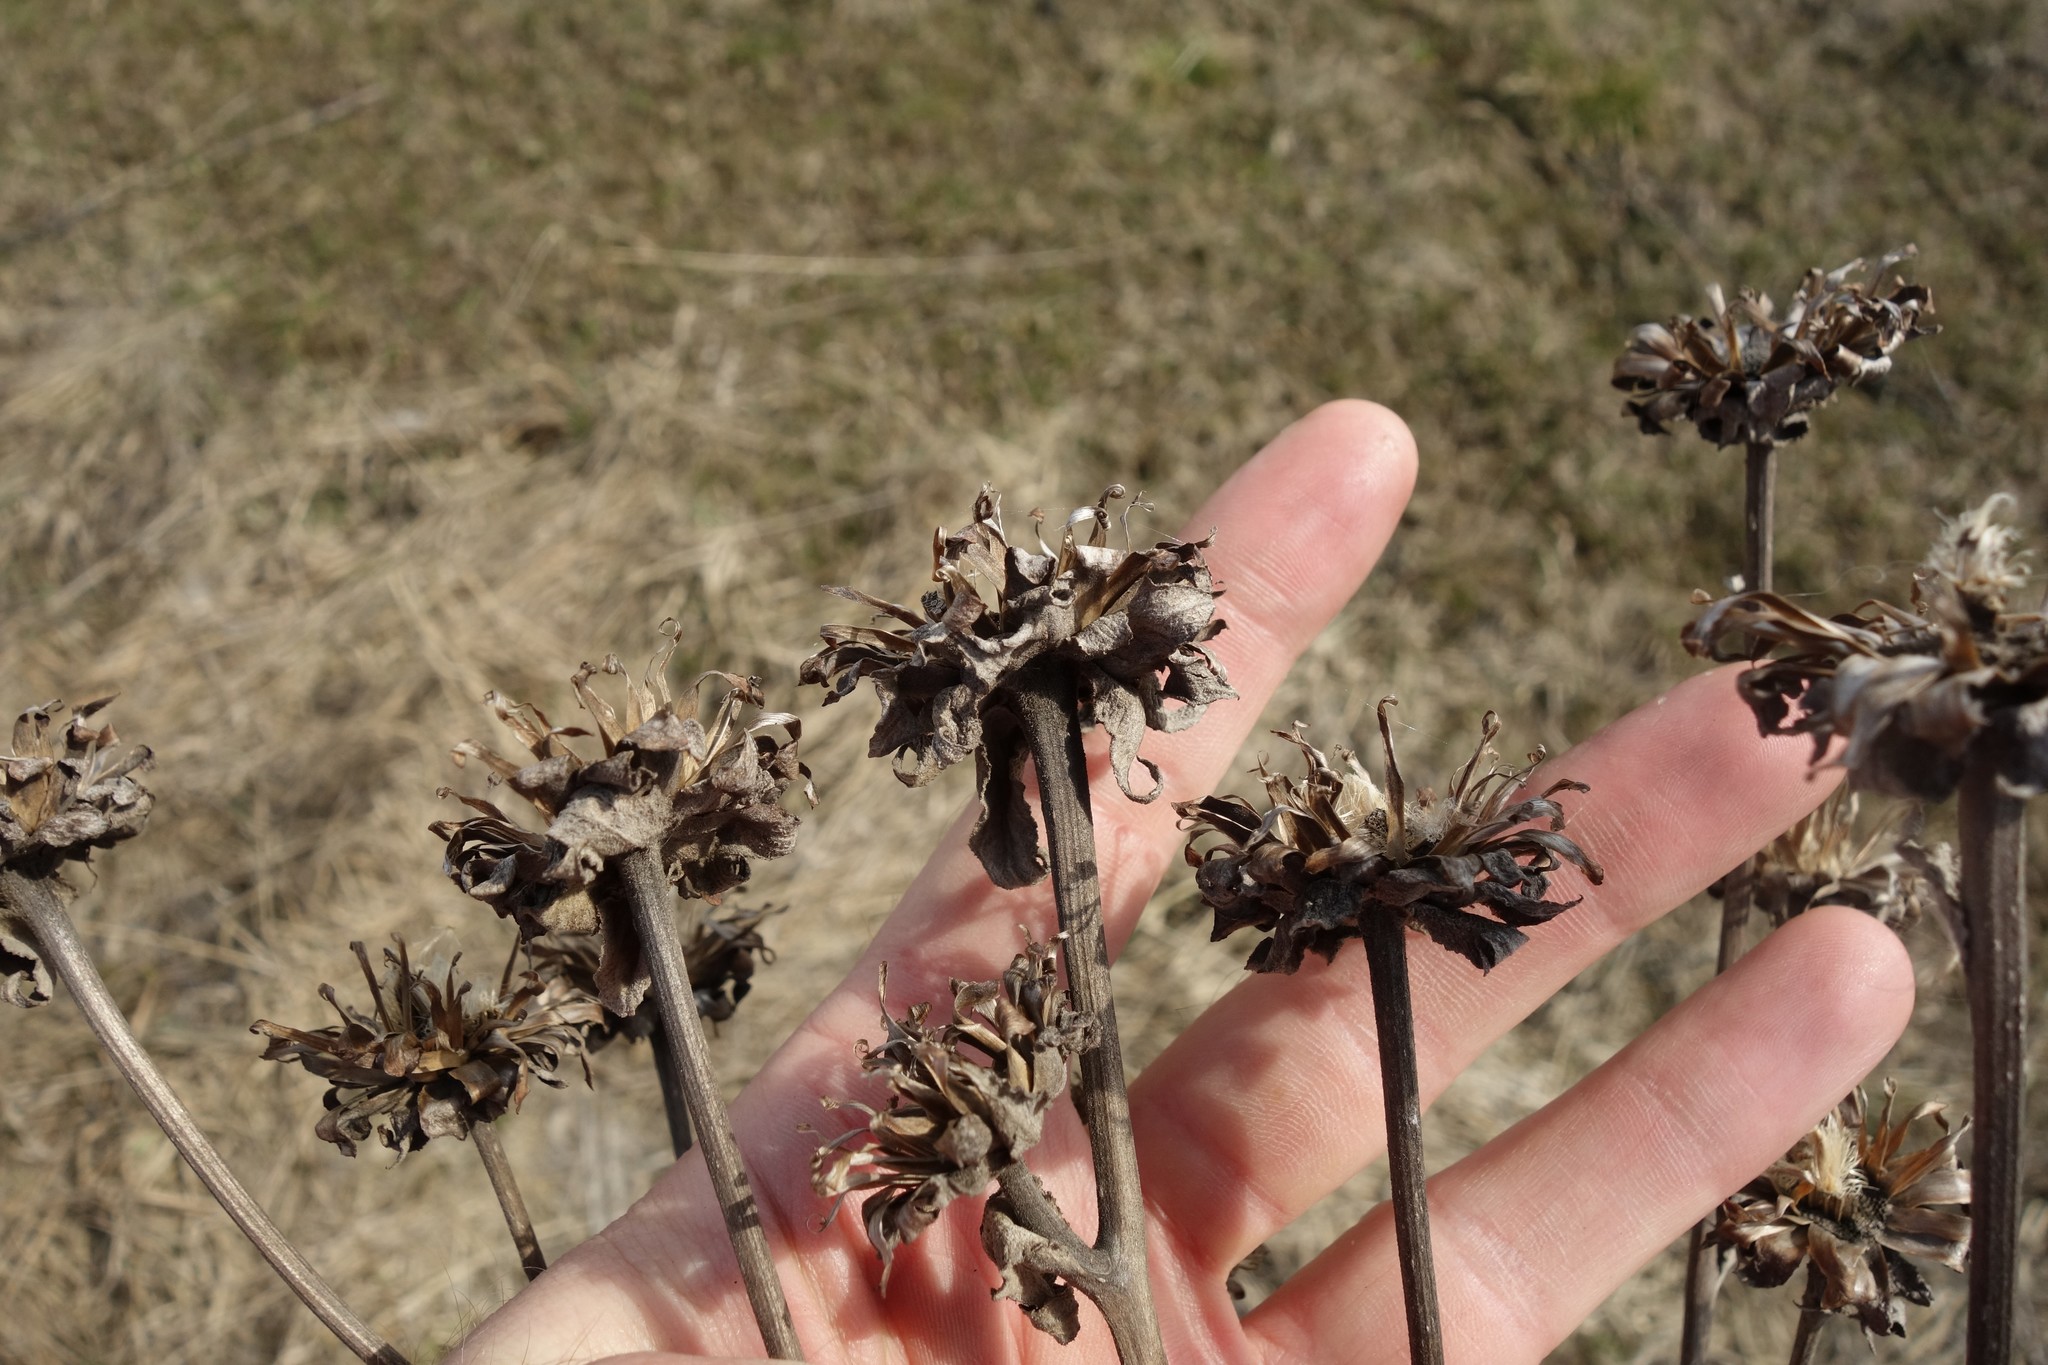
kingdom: Plantae
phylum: Tracheophyta
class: Magnoliopsida
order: Asterales
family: Asteraceae
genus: Inula
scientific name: Inula helenium
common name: Elecampane
